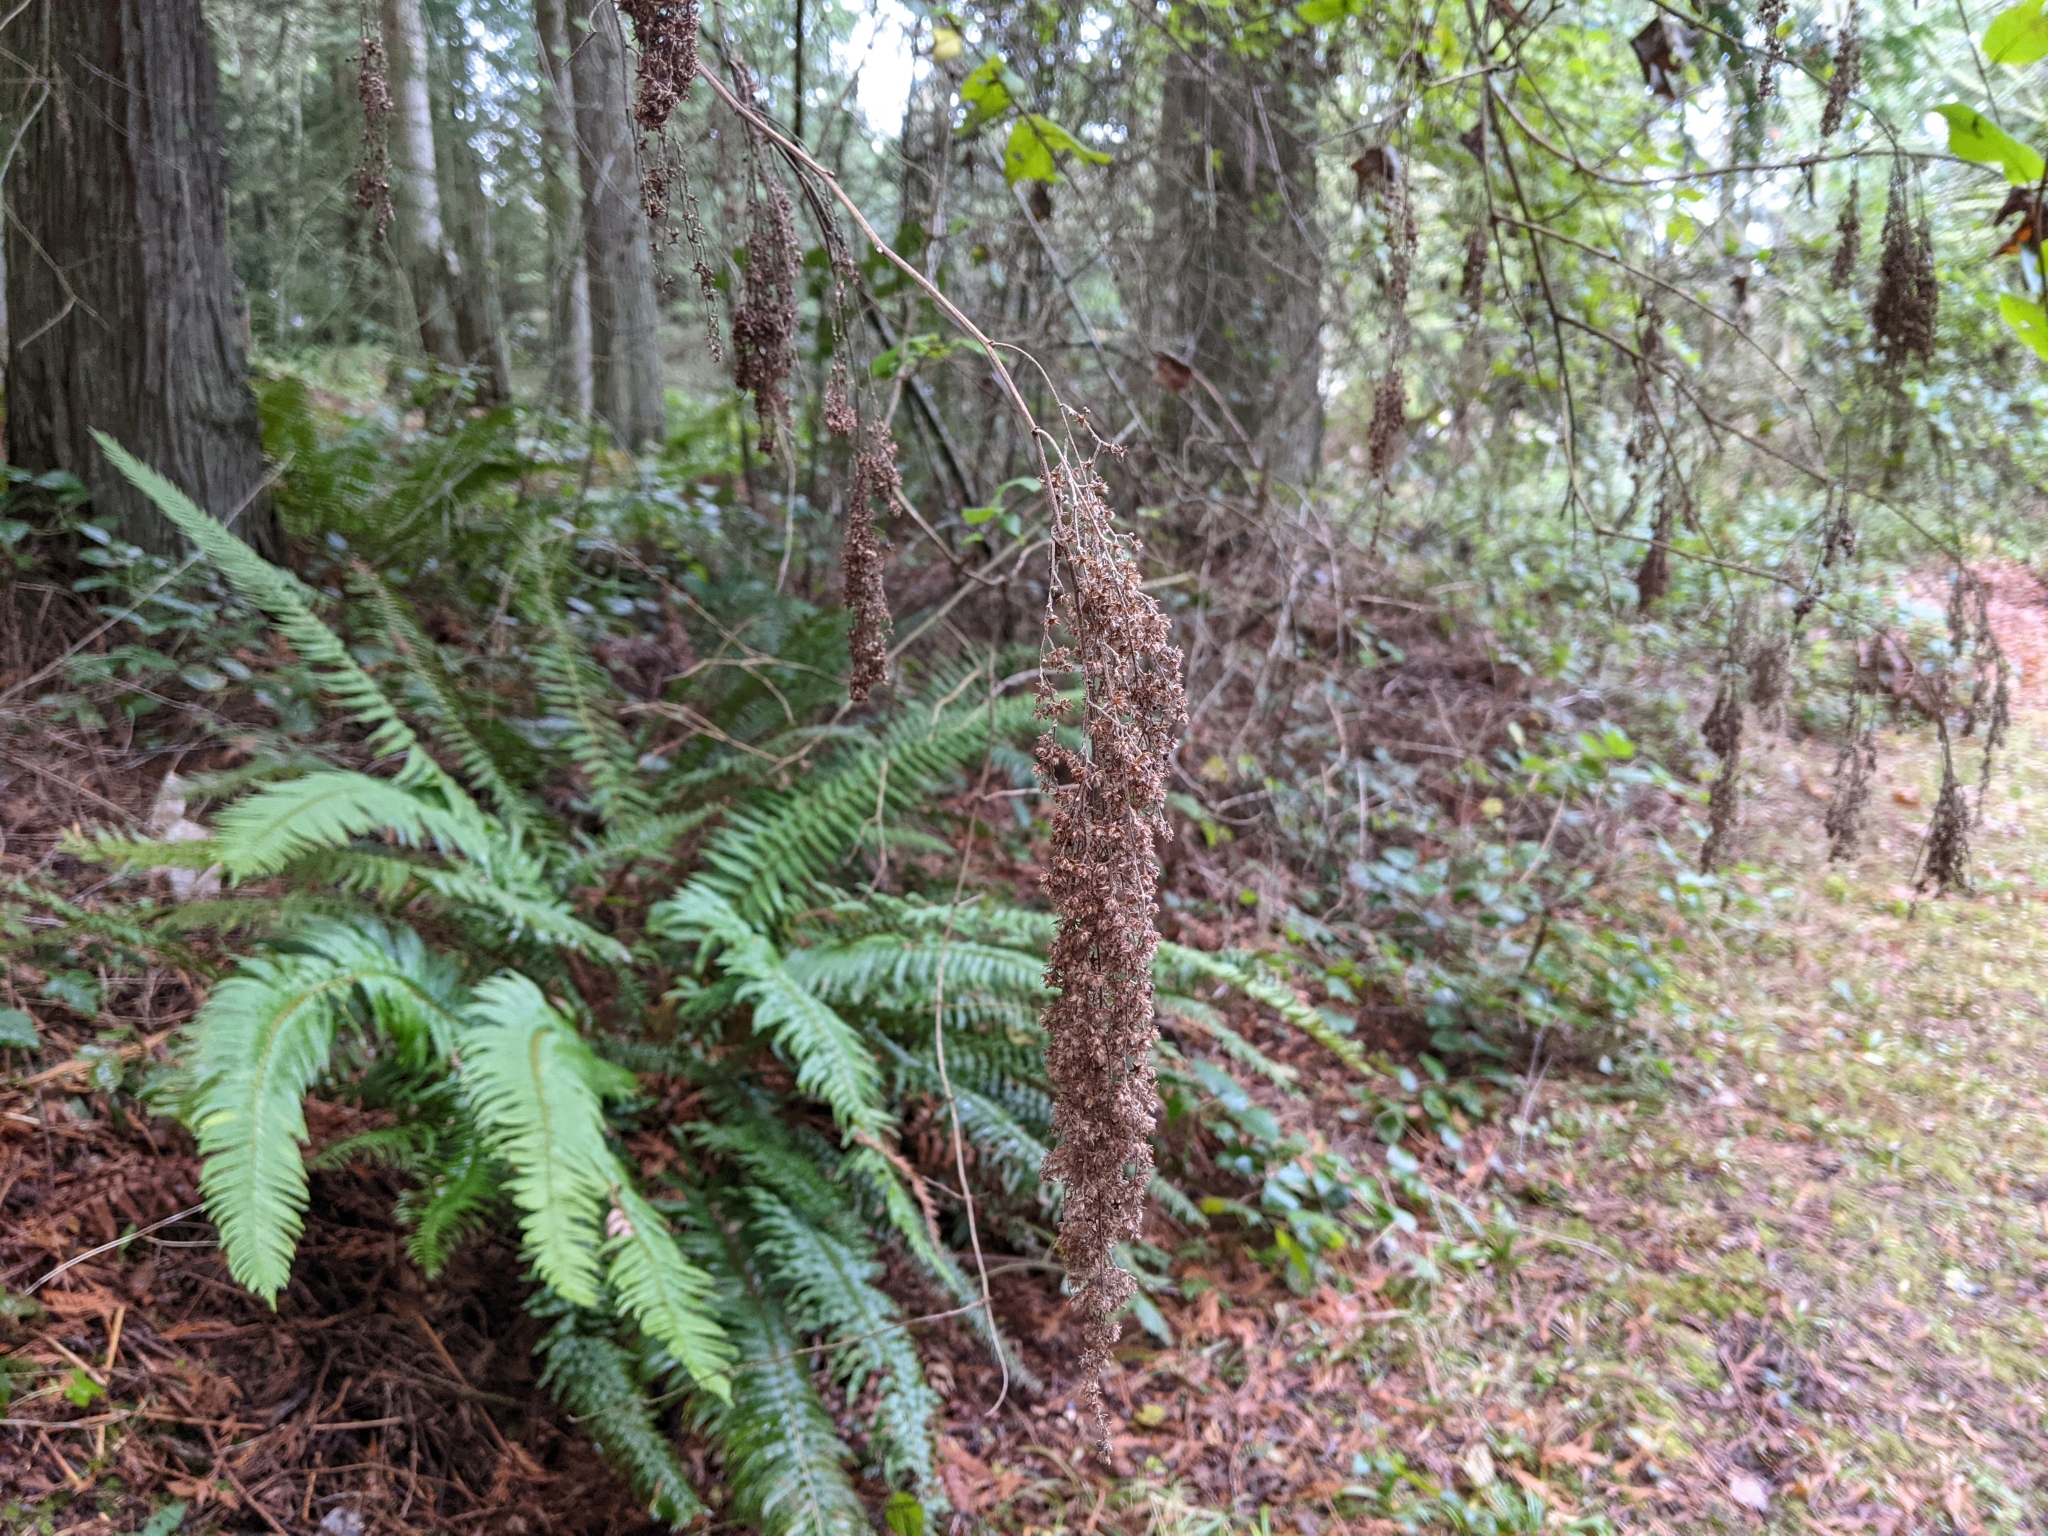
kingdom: Plantae
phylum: Tracheophyta
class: Magnoliopsida
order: Rosales
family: Rosaceae
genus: Holodiscus
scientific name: Holodiscus discolor
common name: Oceanspray
